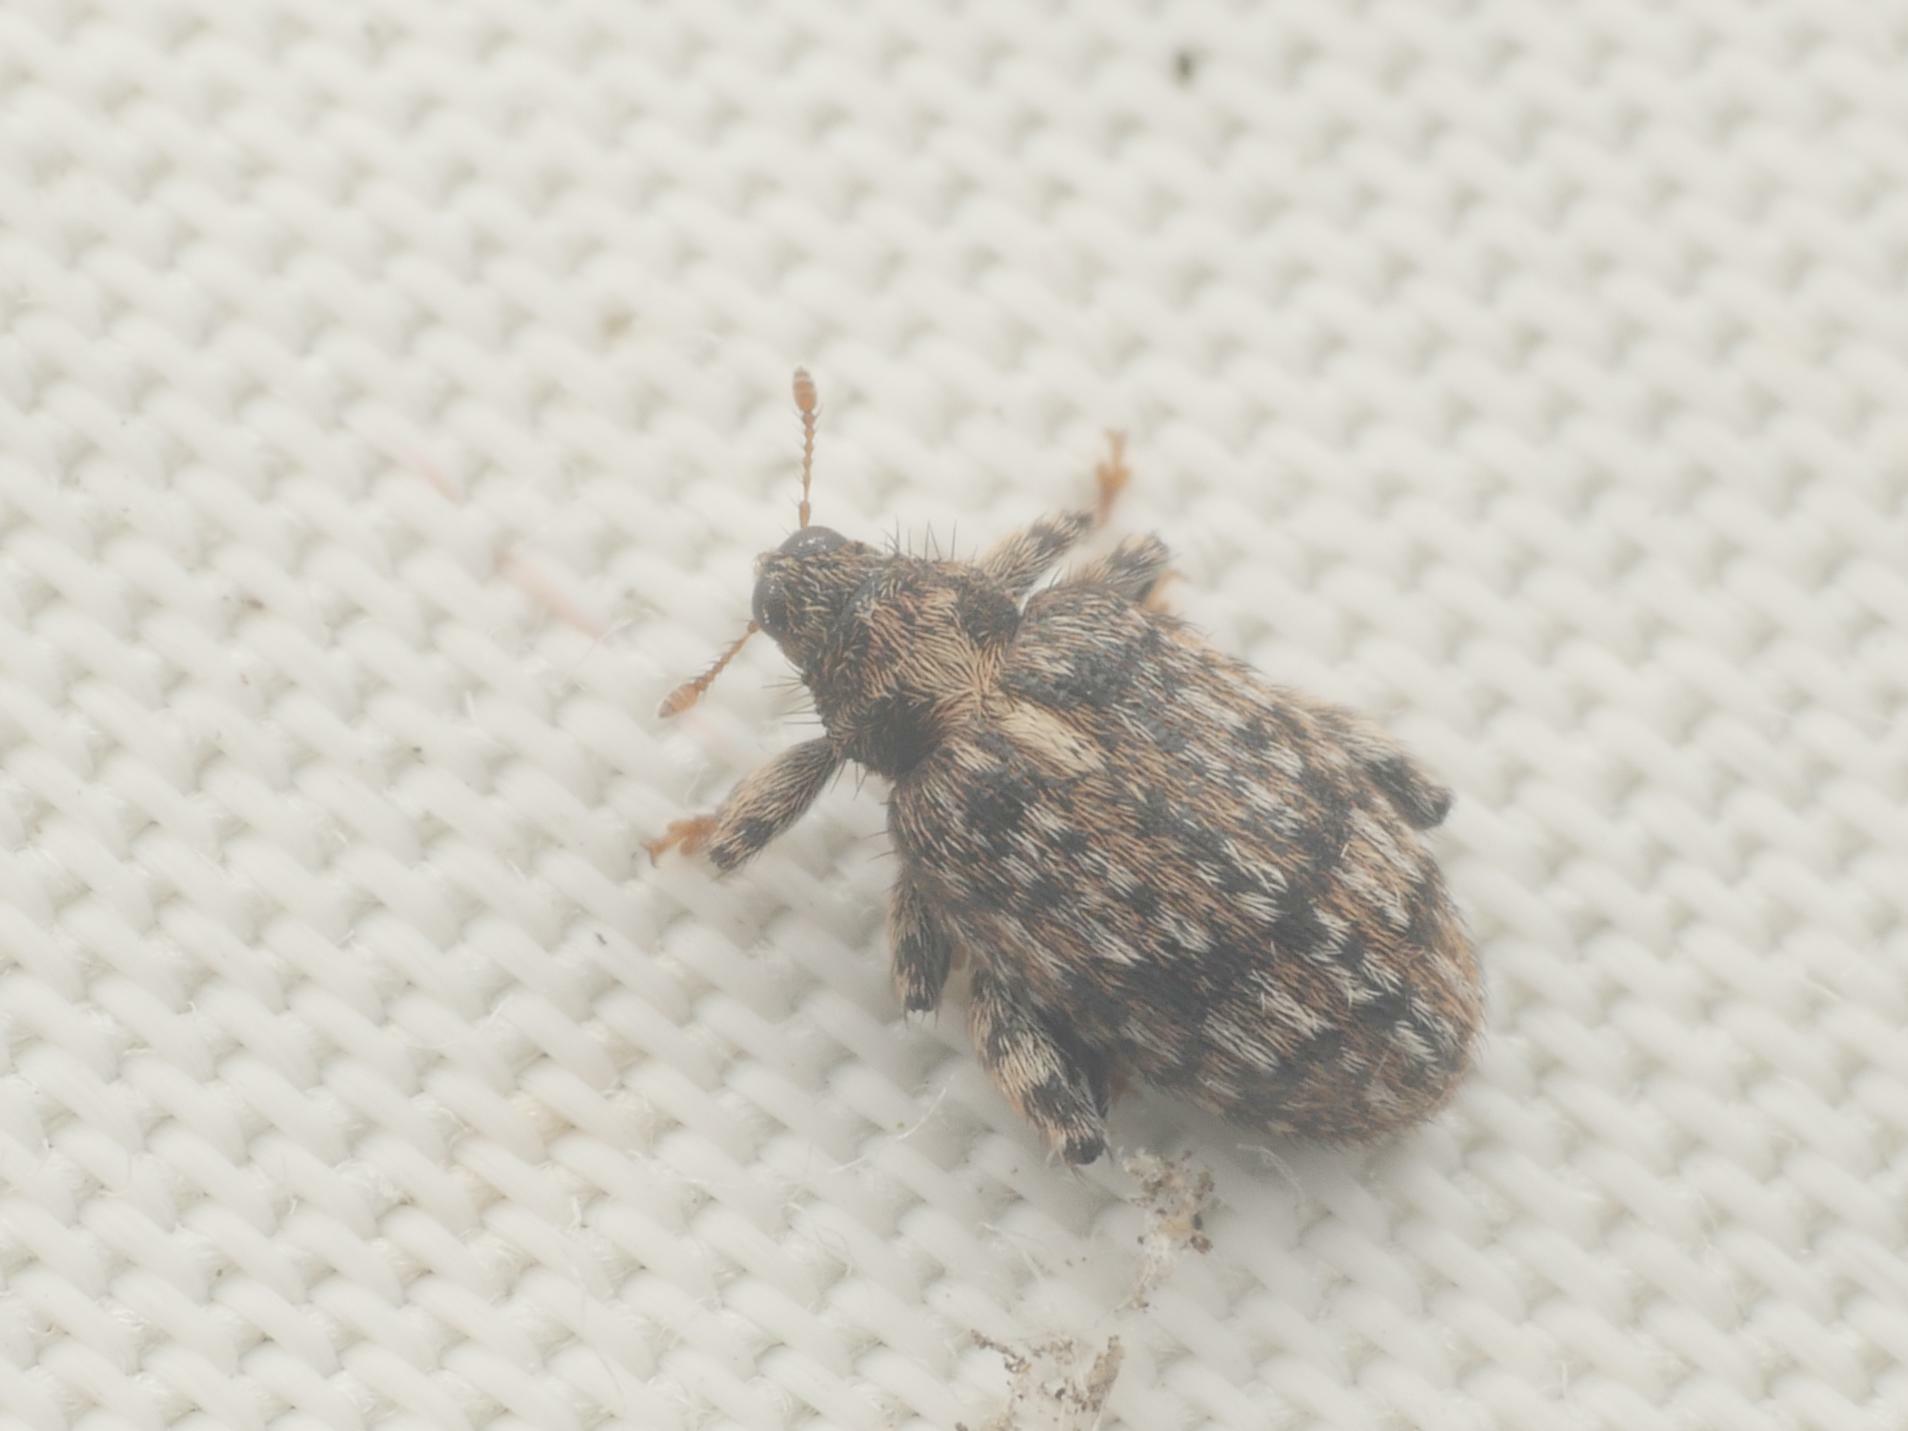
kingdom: Animalia
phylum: Arthropoda
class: Insecta
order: Coleoptera
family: Curculionidae
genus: Orchestes
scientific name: Orchestes pilosus
